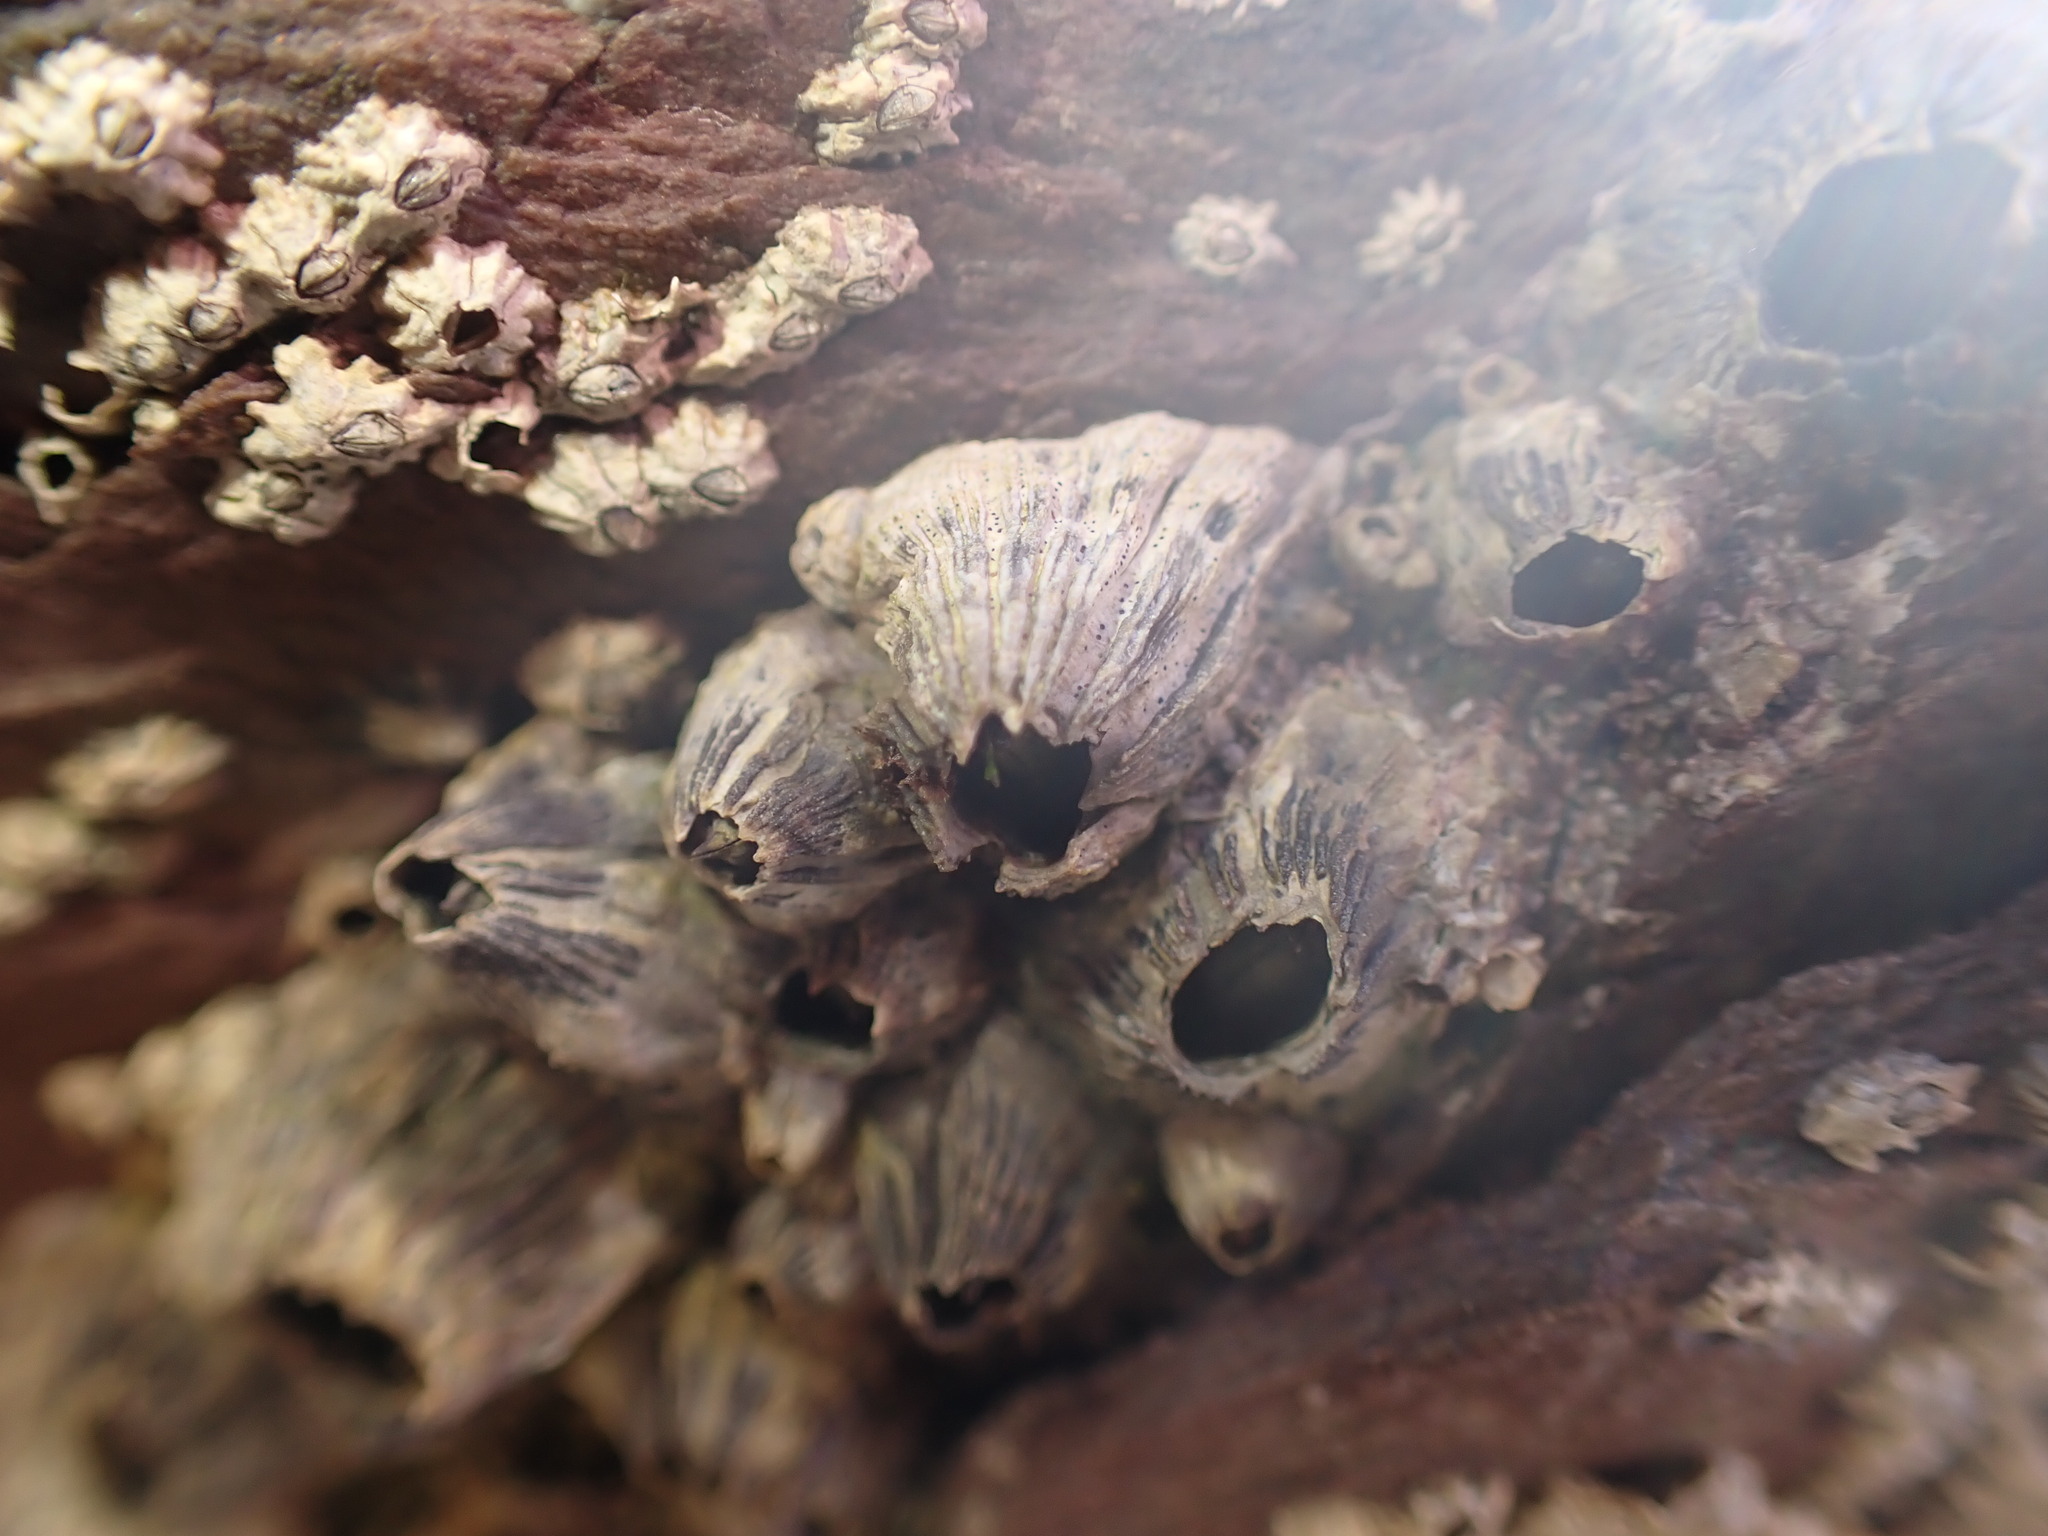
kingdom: Animalia
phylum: Arthropoda
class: Maxillopoda
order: Sessilia
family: Balanidae
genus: Perforatus
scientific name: Perforatus perforatus
